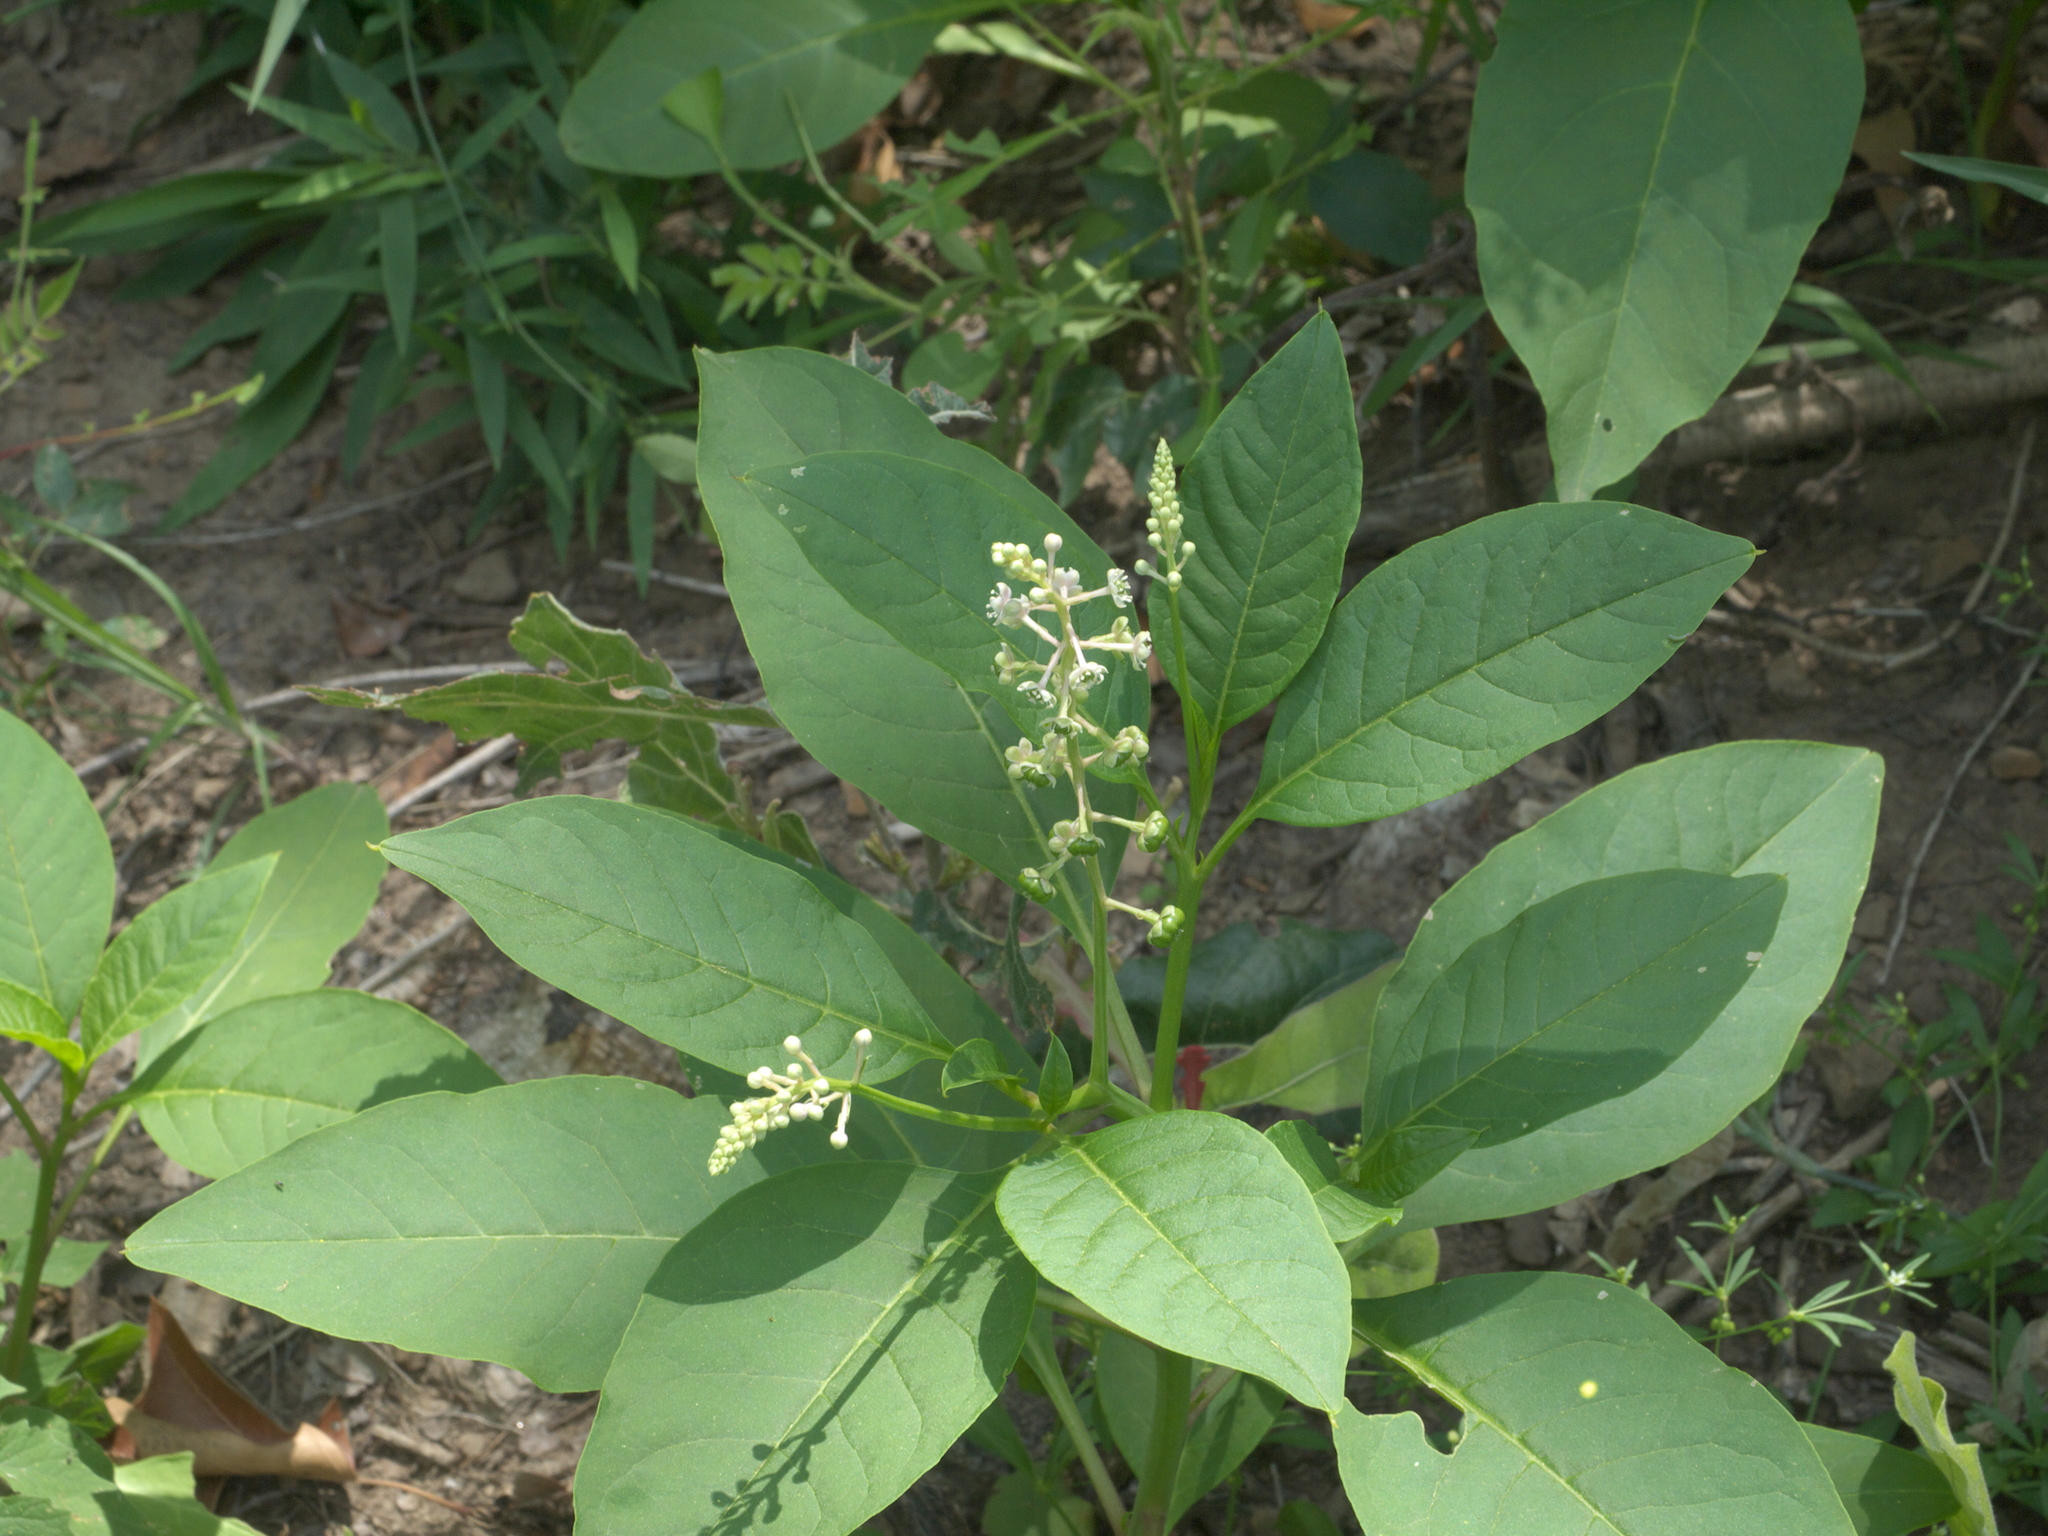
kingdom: Plantae
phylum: Tracheophyta
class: Magnoliopsida
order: Caryophyllales
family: Phytolaccaceae
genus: Phytolacca
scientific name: Phytolacca americana
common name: American pokeweed
